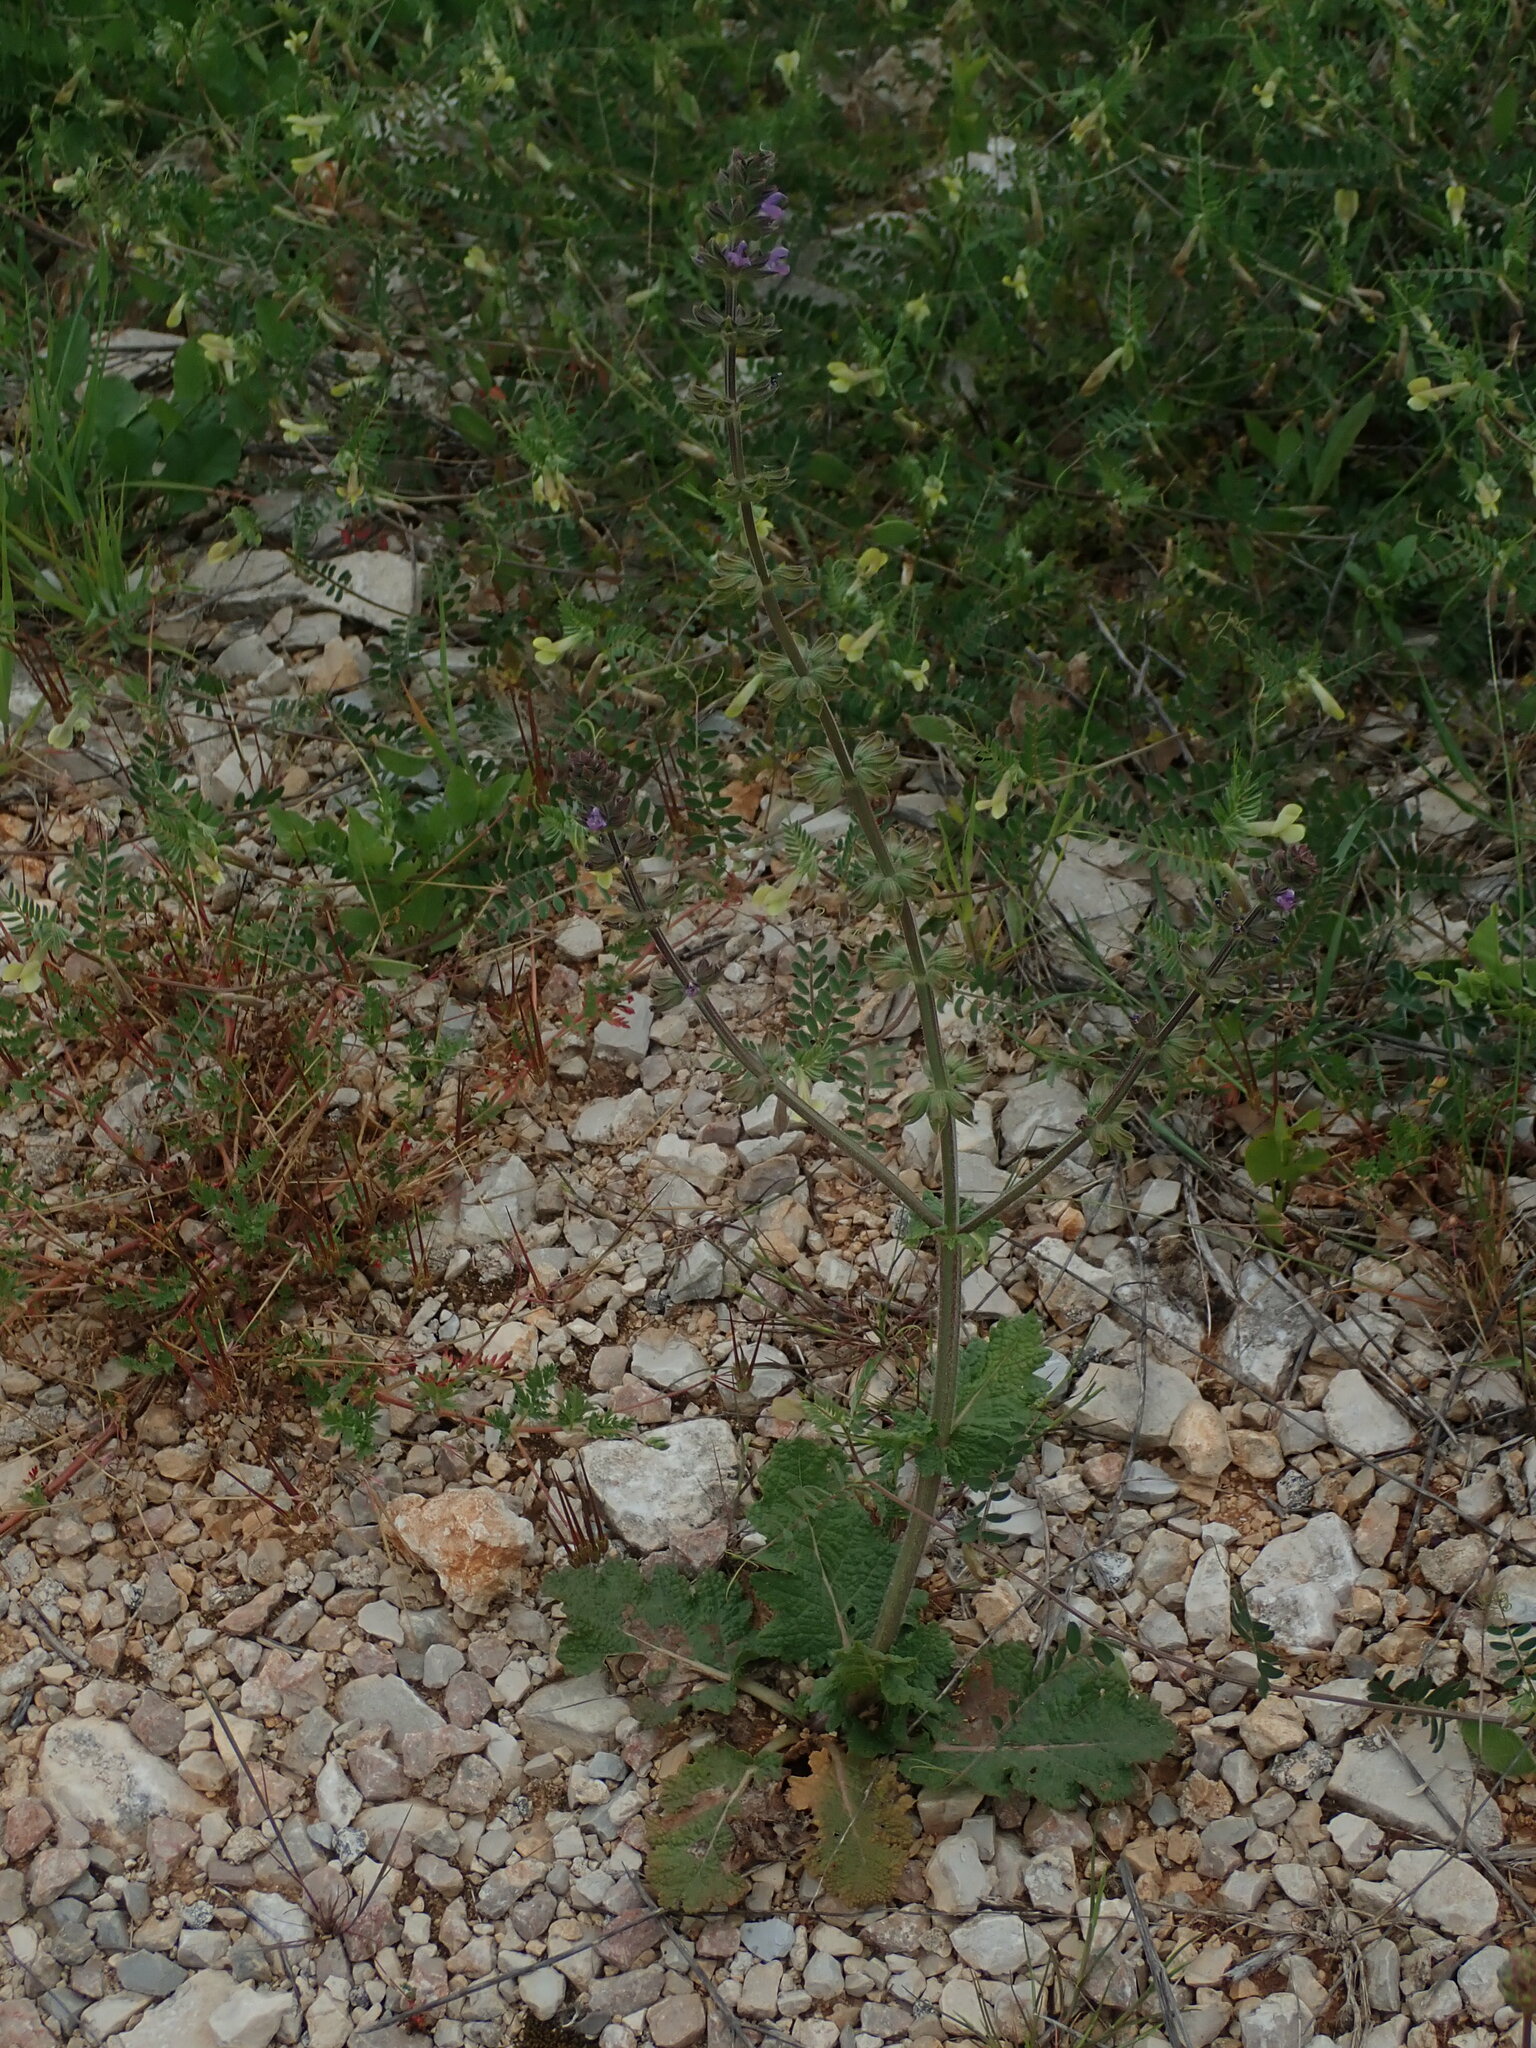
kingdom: Plantae
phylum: Tracheophyta
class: Magnoliopsida
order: Lamiales
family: Lamiaceae
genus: Salvia
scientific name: Salvia verbenaca
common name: Wild clary
